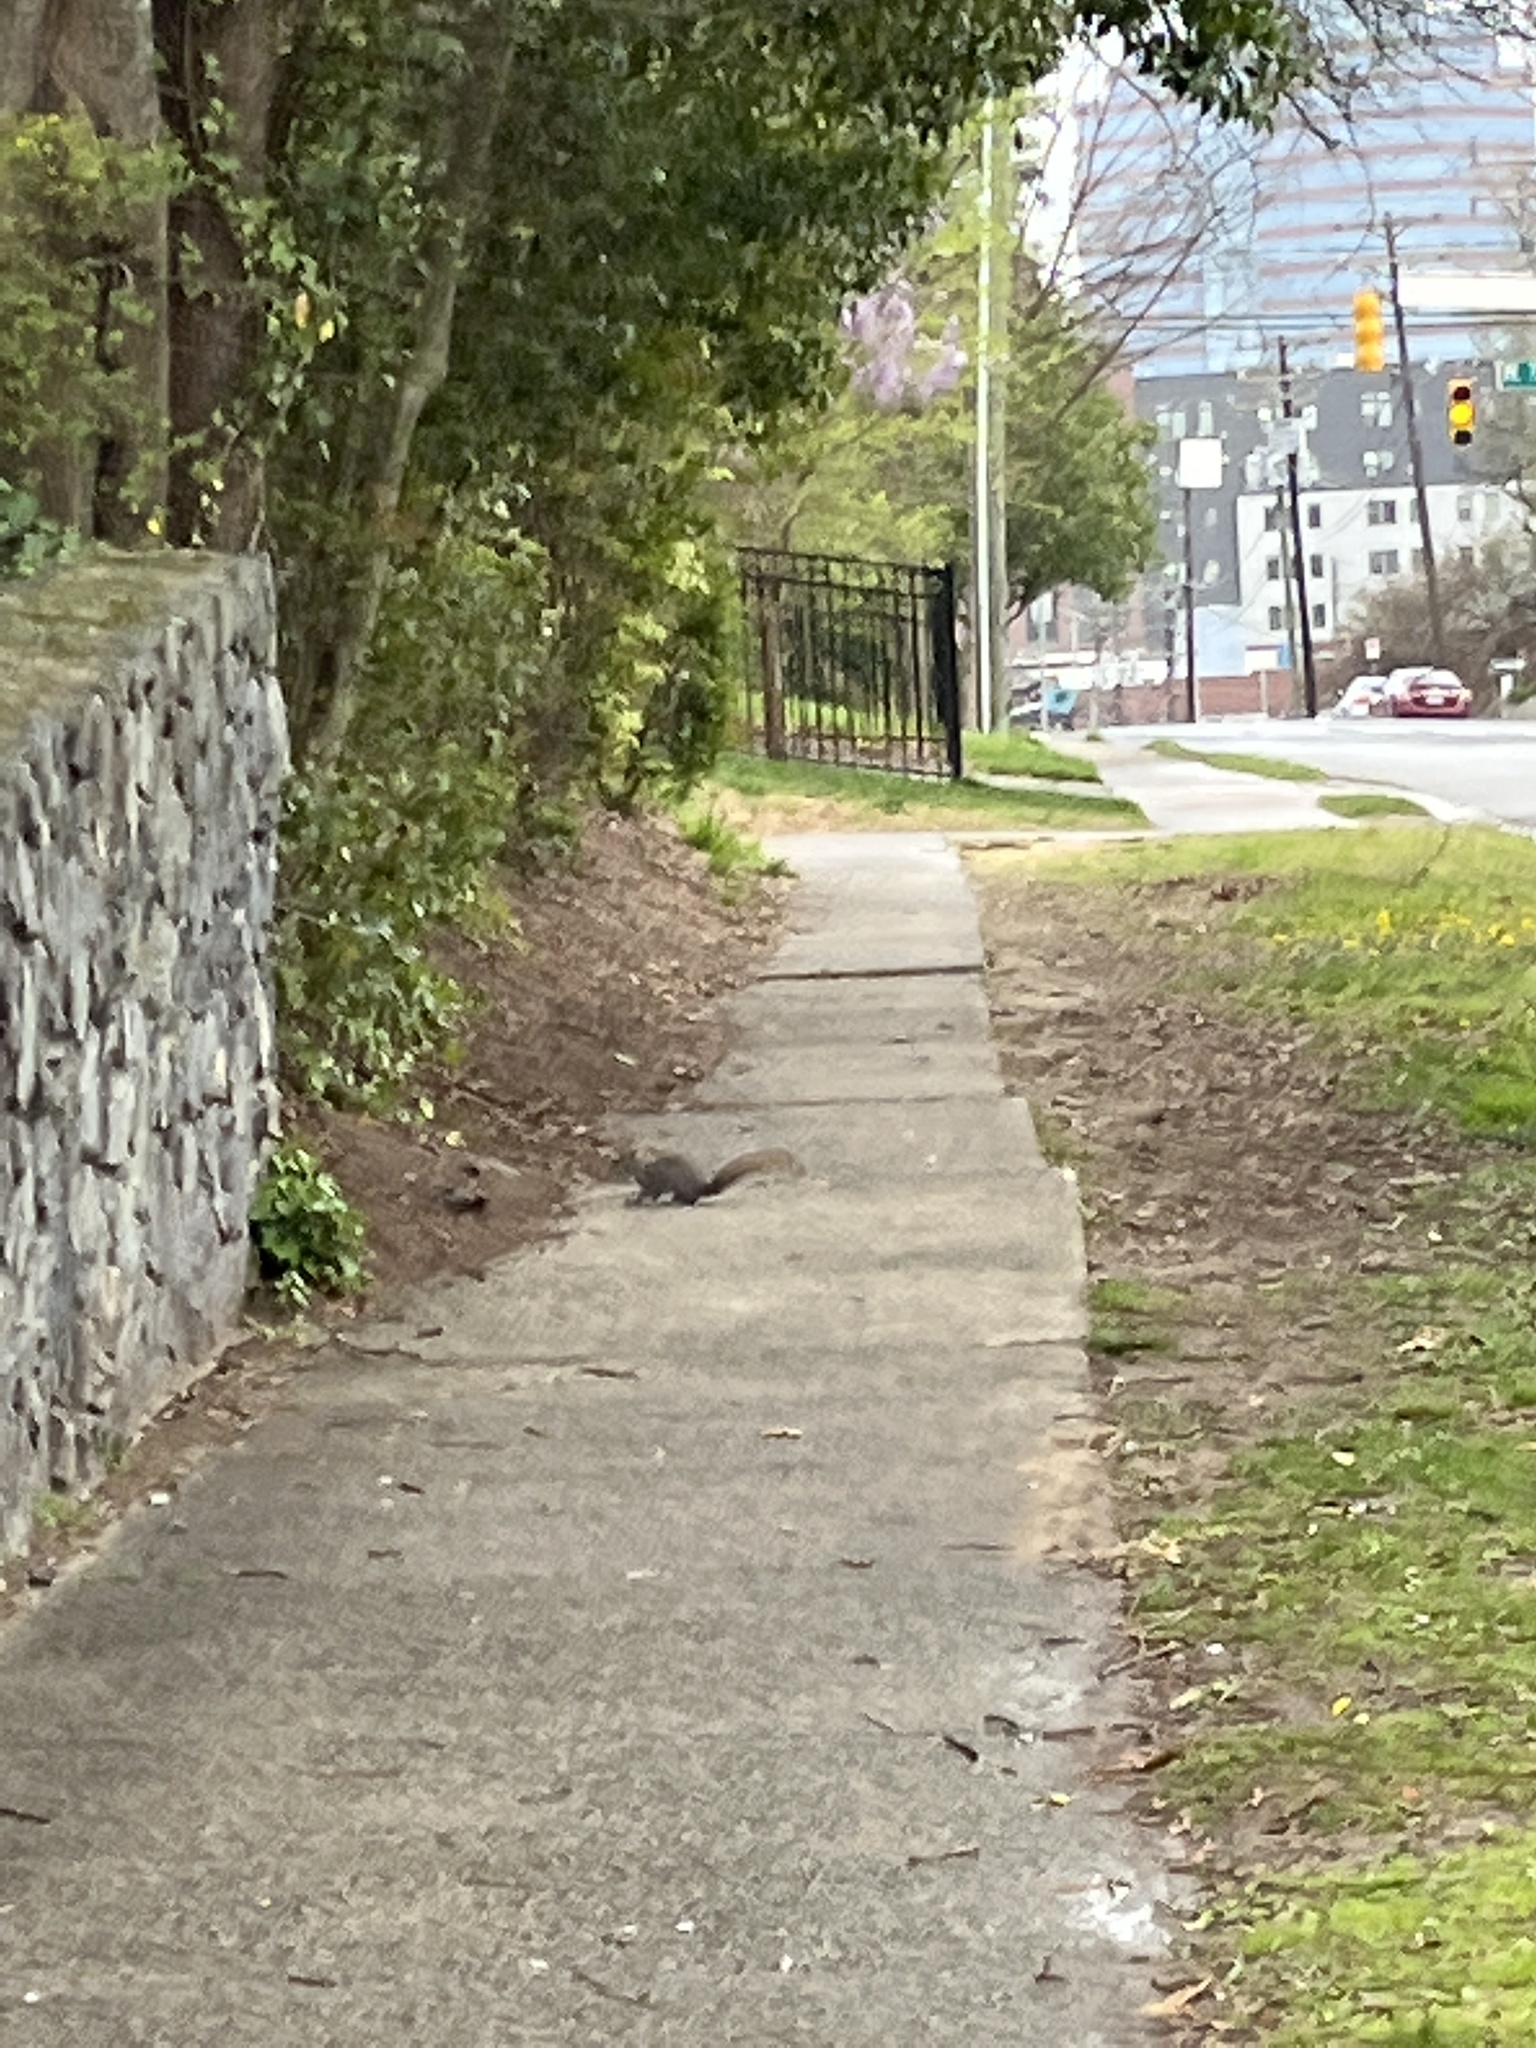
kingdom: Animalia
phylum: Chordata
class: Mammalia
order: Rodentia
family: Sciuridae
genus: Sciurus
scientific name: Sciurus carolinensis
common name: Eastern gray squirrel
